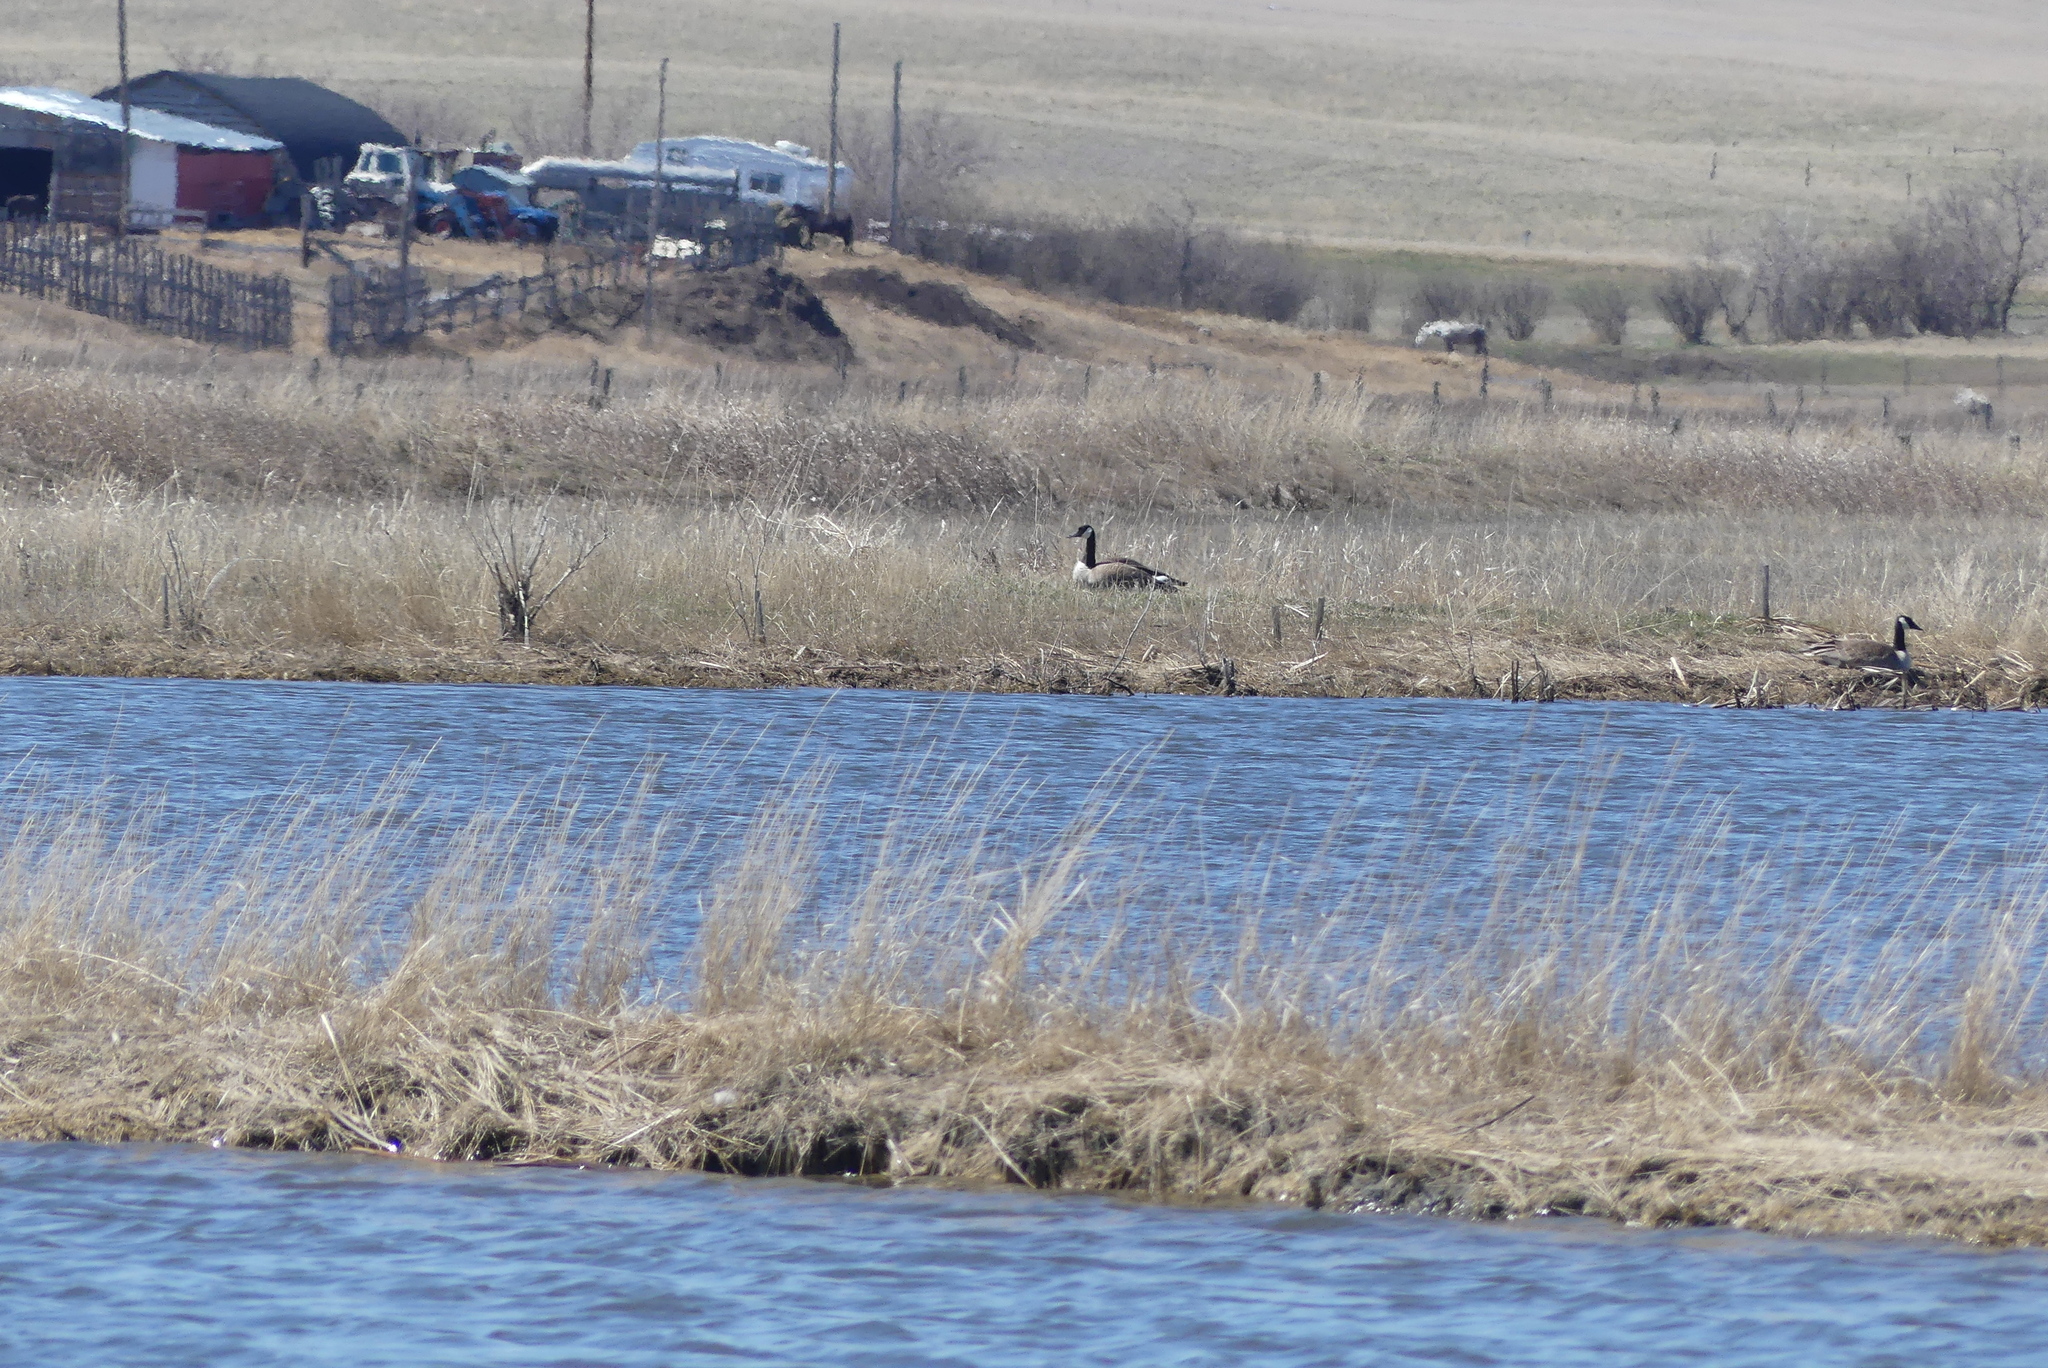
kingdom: Animalia
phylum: Chordata
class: Aves
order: Anseriformes
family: Anatidae
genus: Branta
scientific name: Branta canadensis
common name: Canada goose
